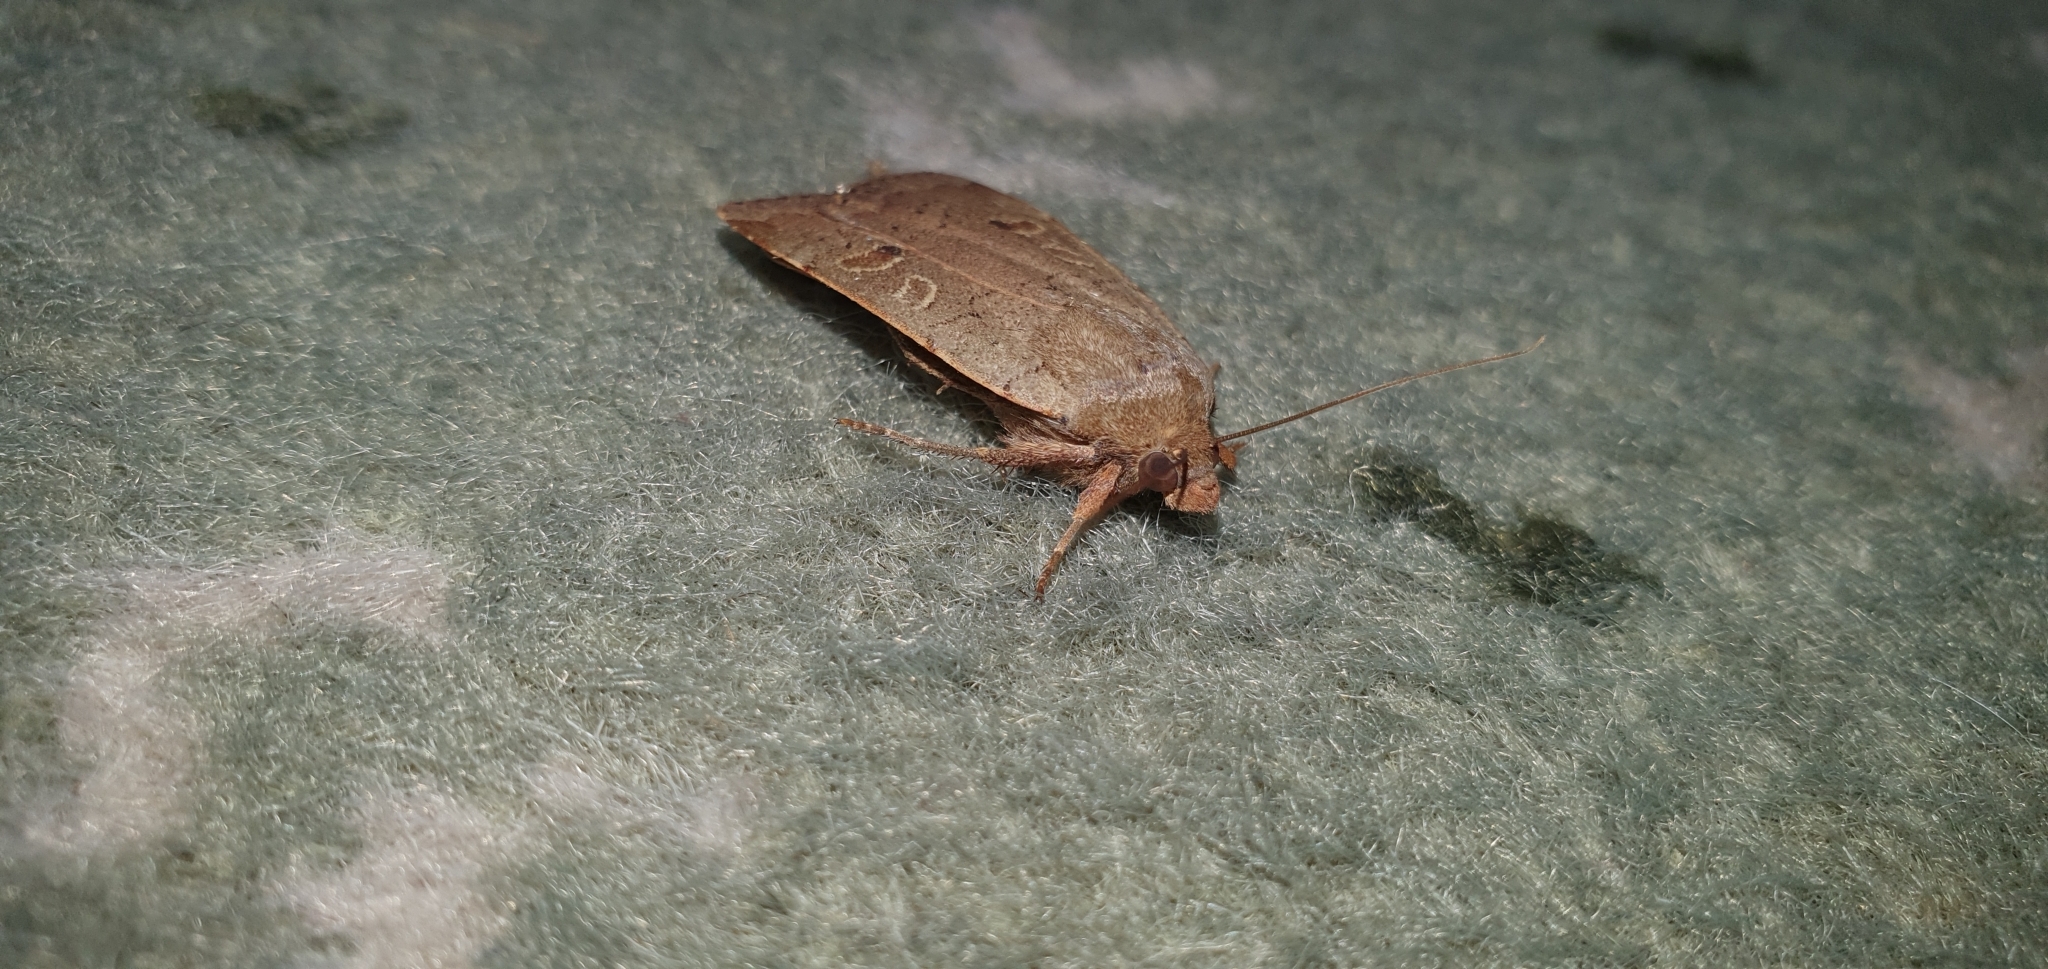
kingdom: Animalia
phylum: Arthropoda
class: Insecta
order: Lepidoptera
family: Noctuidae
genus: Noctua
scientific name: Noctua comes
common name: Lesser yellow underwing
